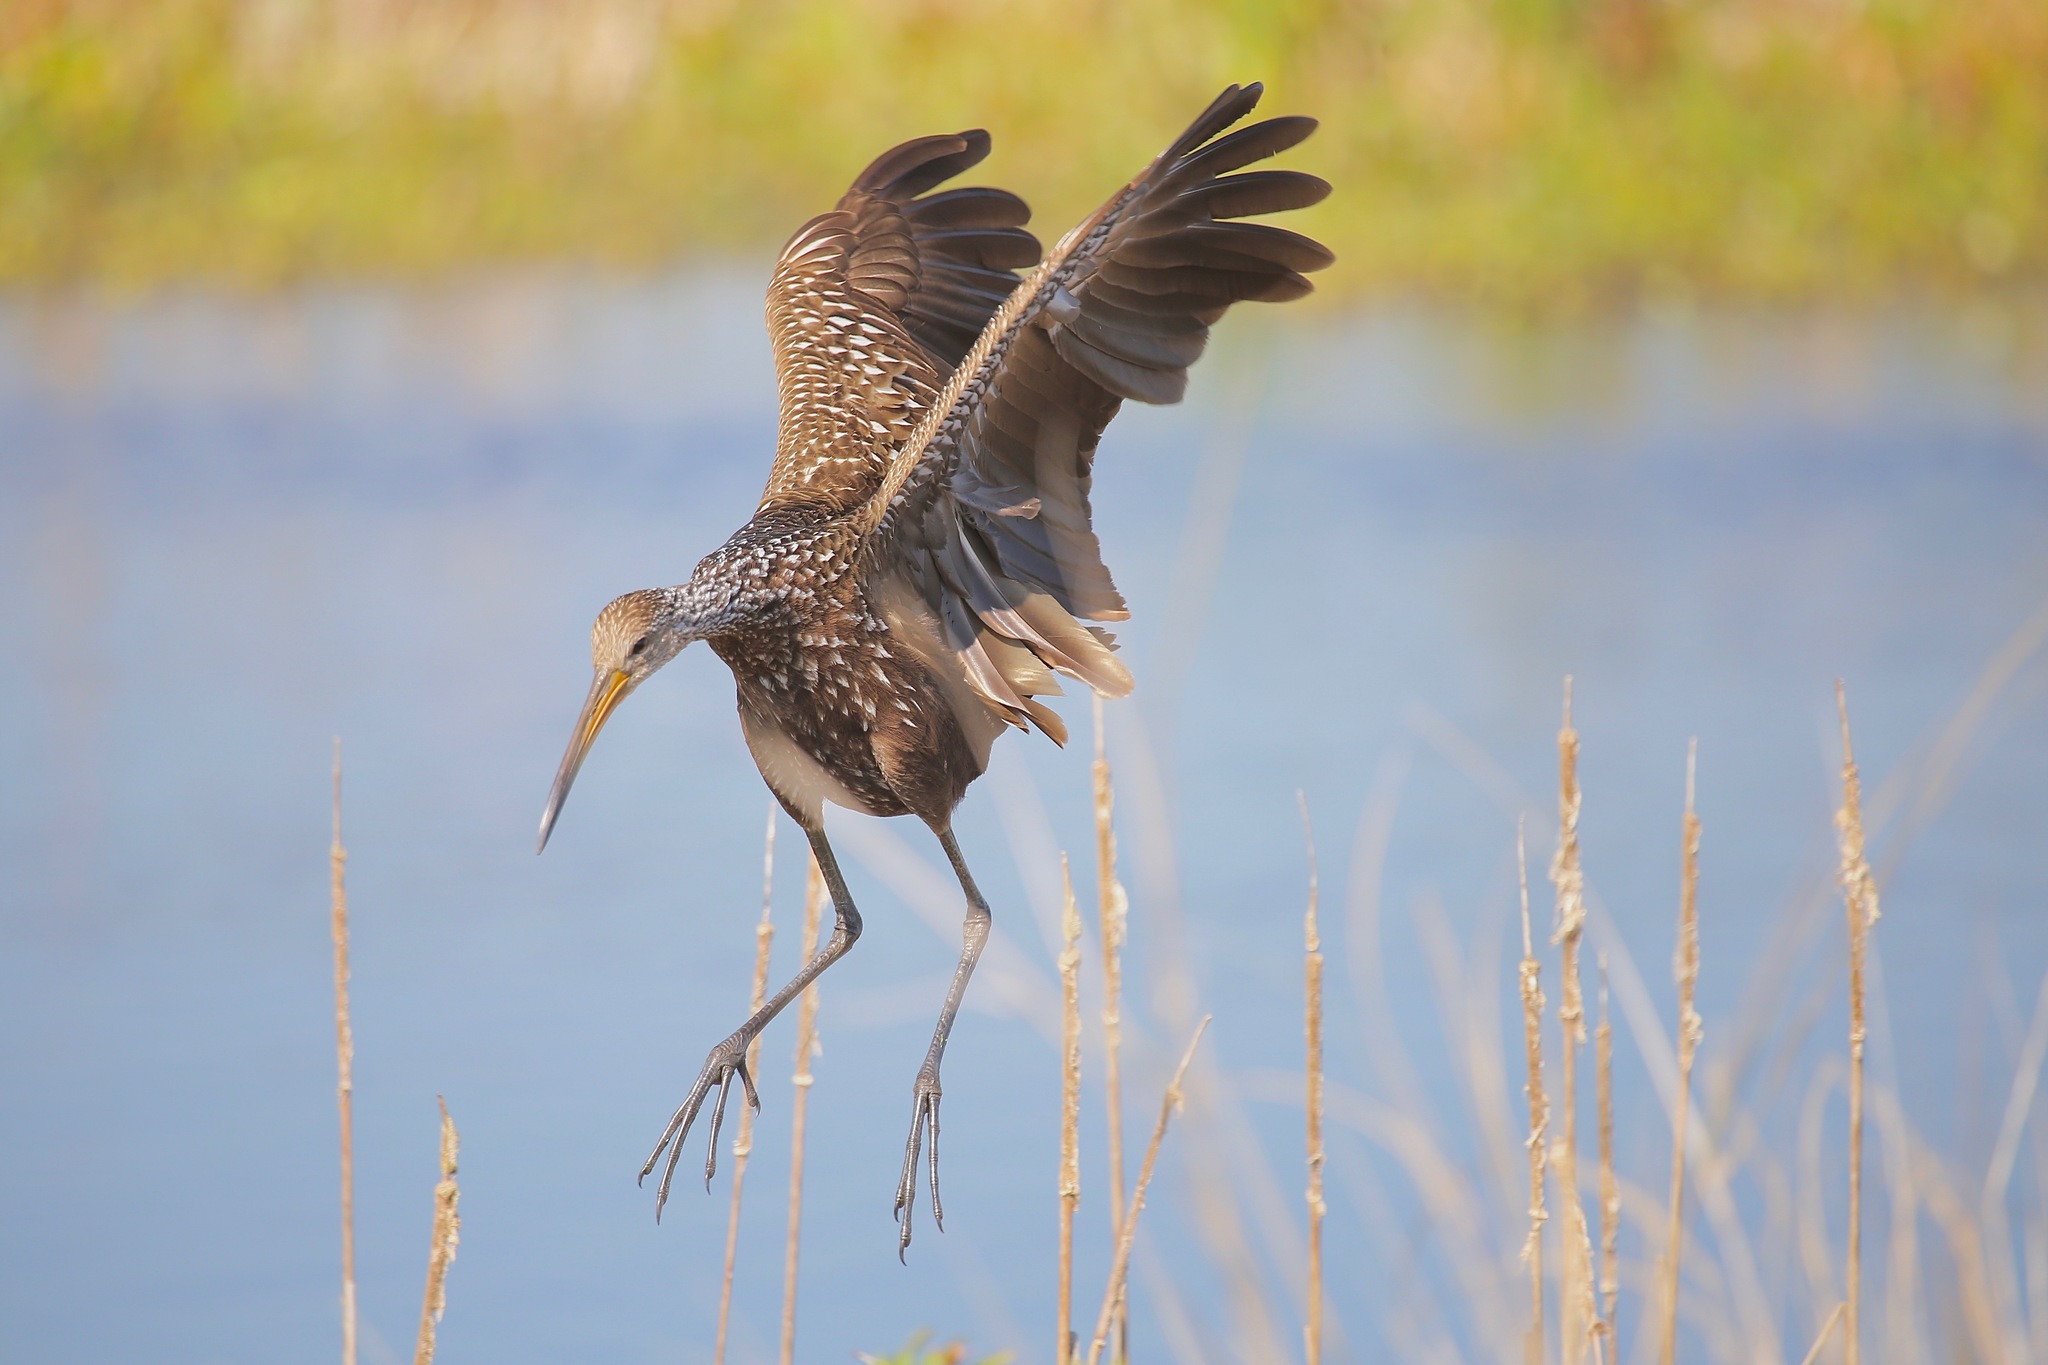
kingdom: Animalia
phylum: Chordata
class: Aves
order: Gruiformes
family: Aramidae
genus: Aramus
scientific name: Aramus guarauna
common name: Limpkin
